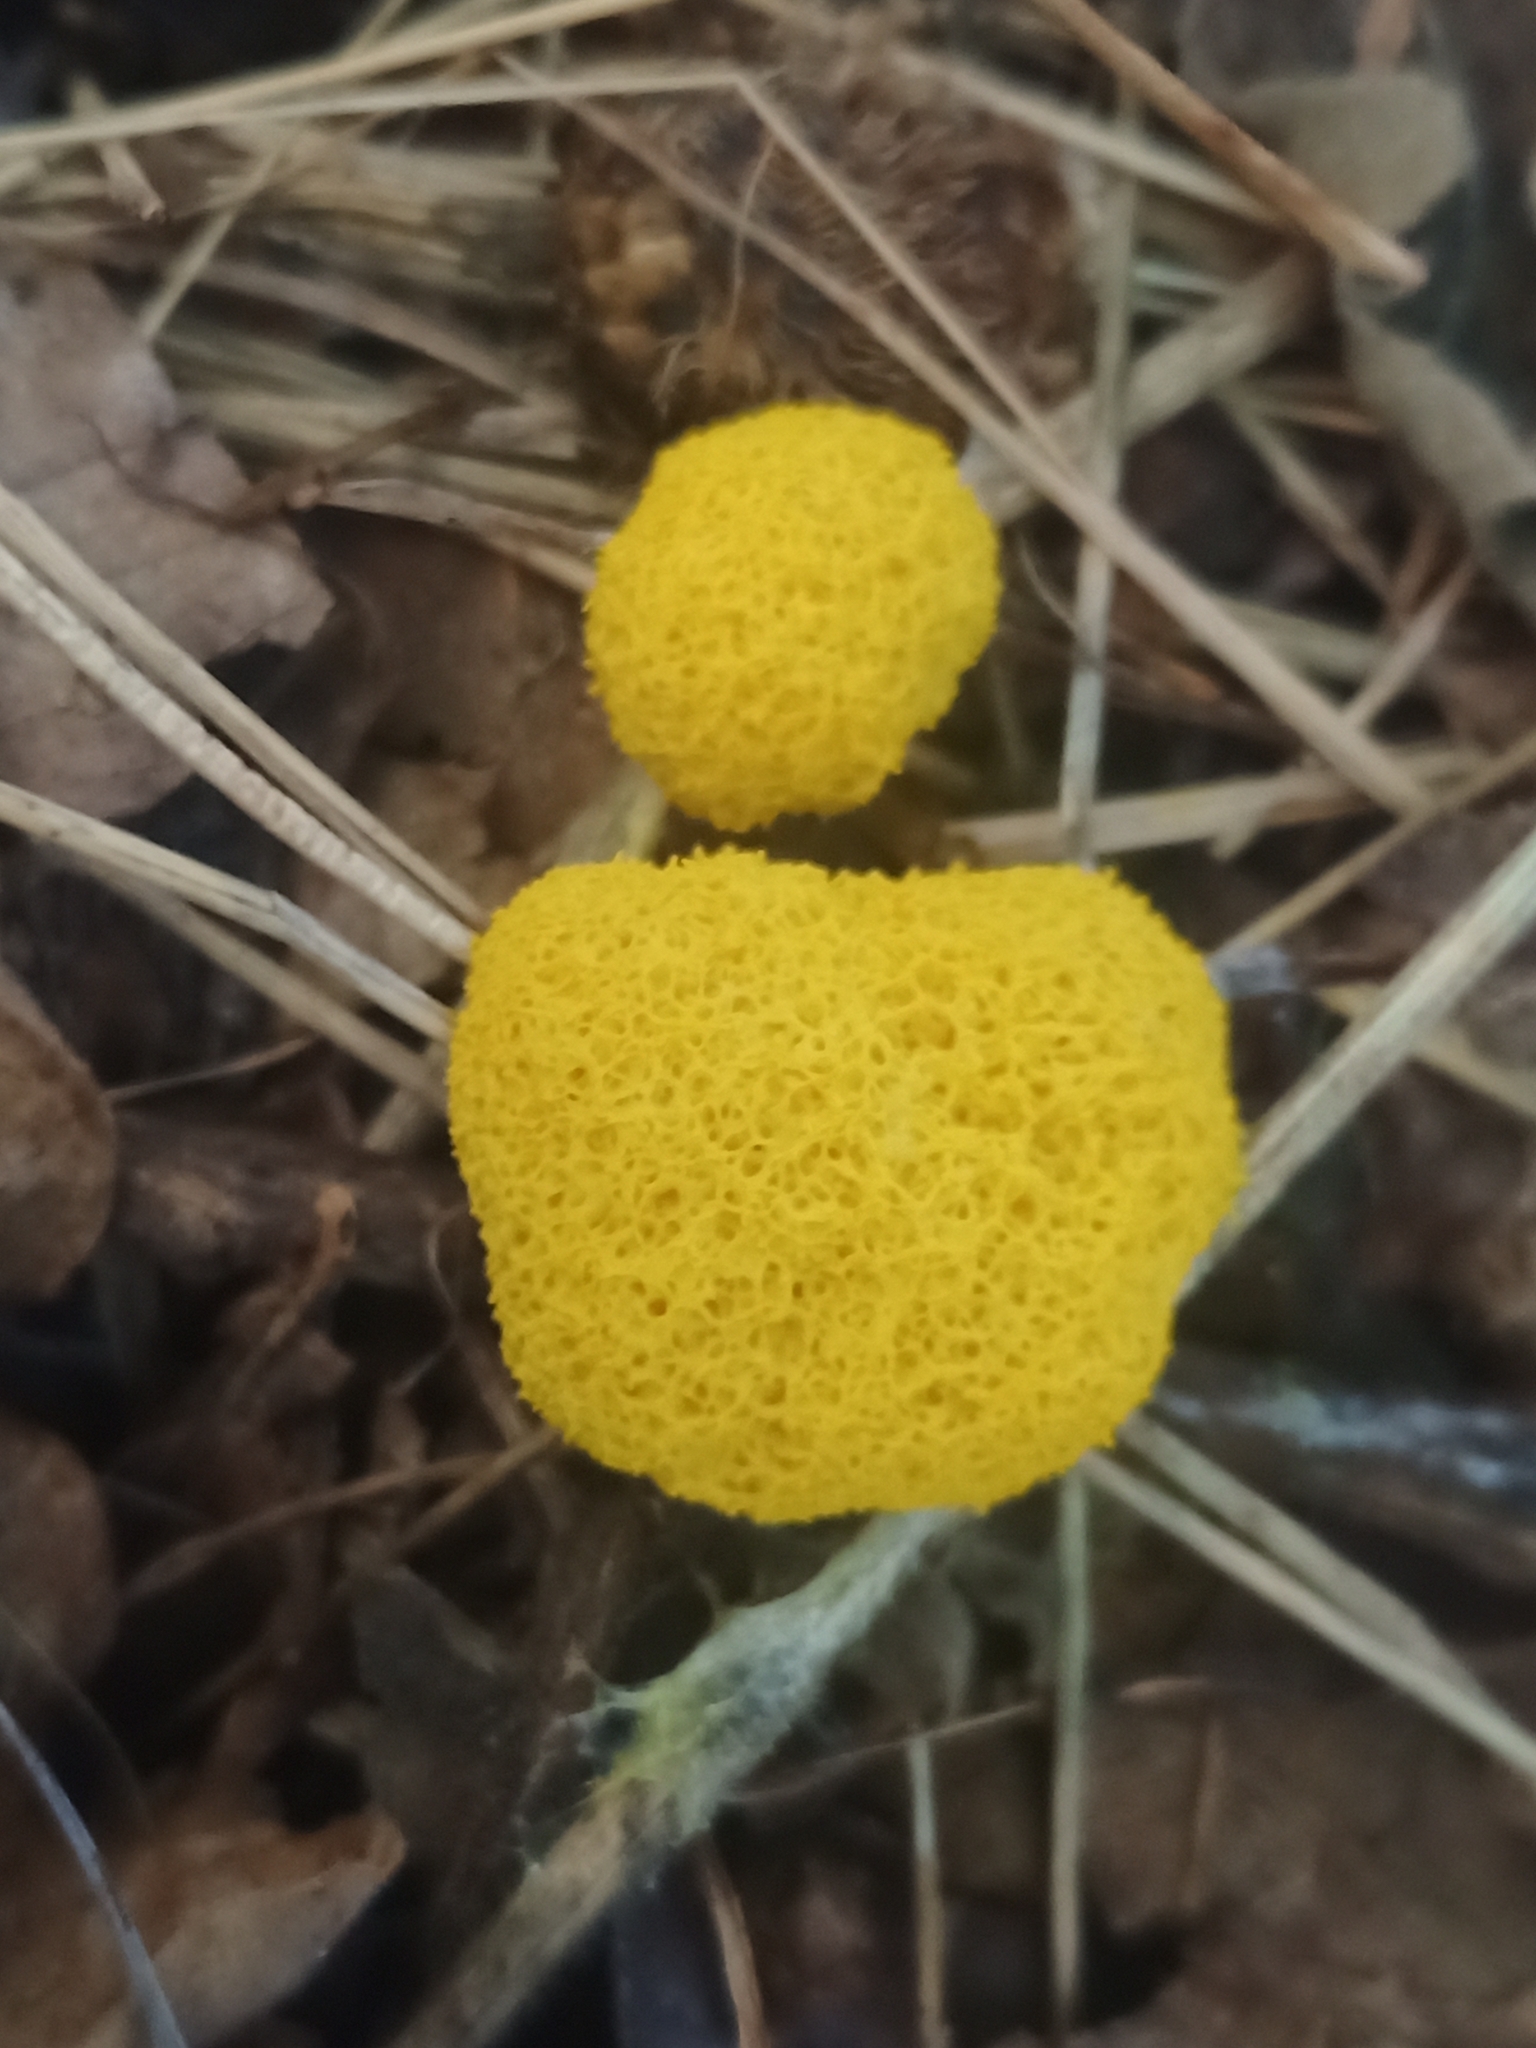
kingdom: Protozoa
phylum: Mycetozoa
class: Myxomycetes
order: Physarales
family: Physaraceae
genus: Fuligo
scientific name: Fuligo septica
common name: Dog vomit slime mold
